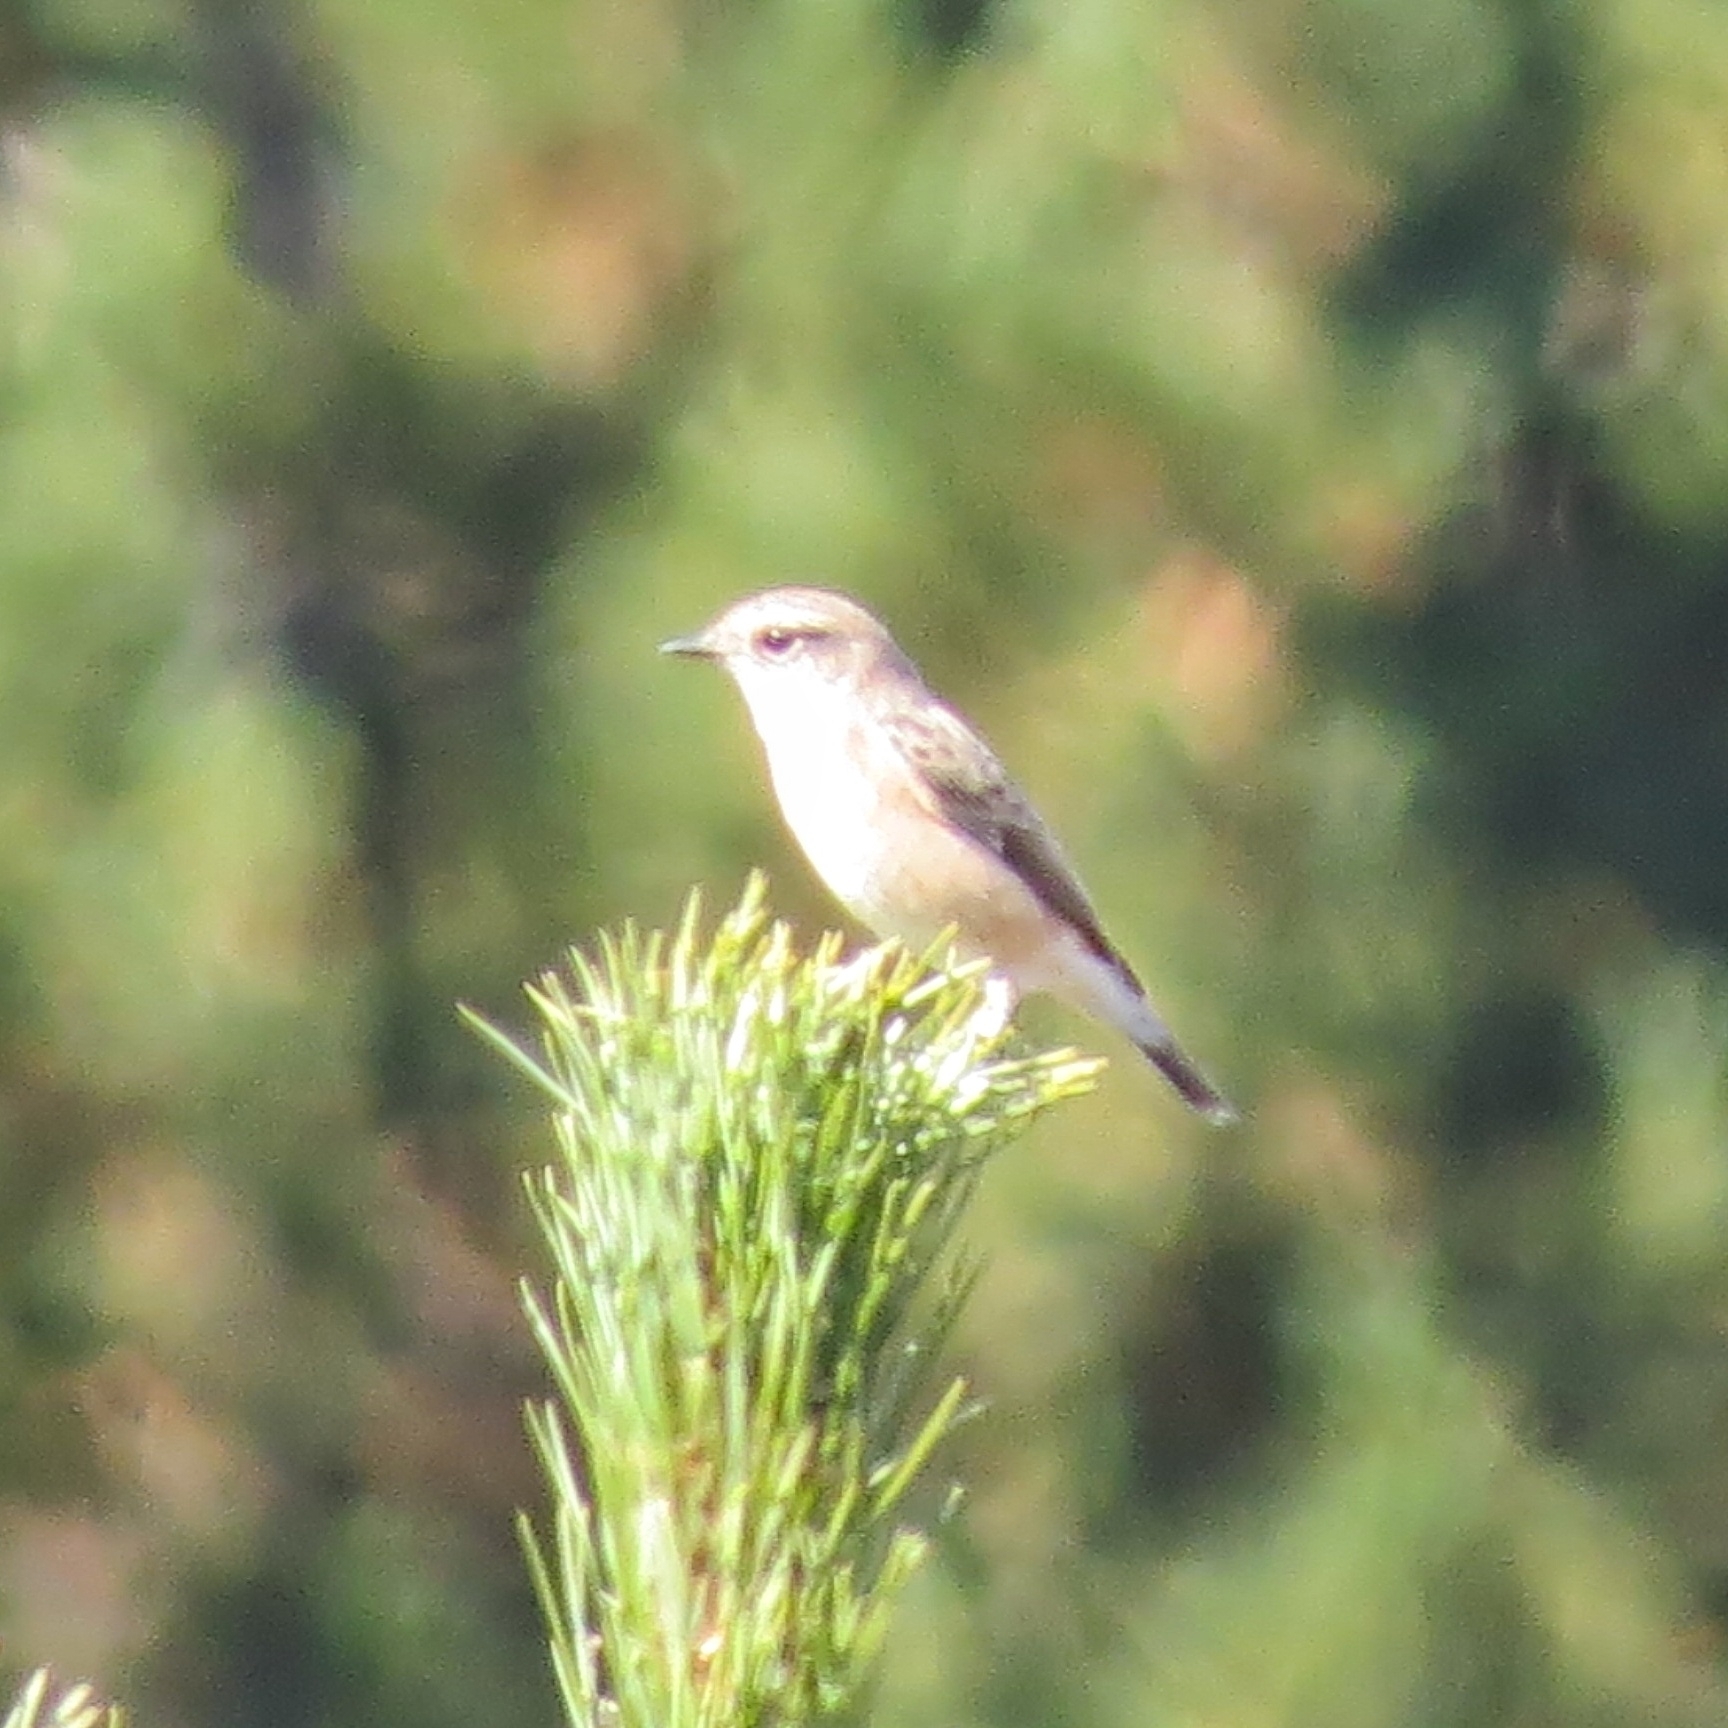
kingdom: Animalia
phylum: Chordata
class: Aves
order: Passeriformes
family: Muscicapidae
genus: Saxicola
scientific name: Saxicola maurus
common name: Siberian stonechat
